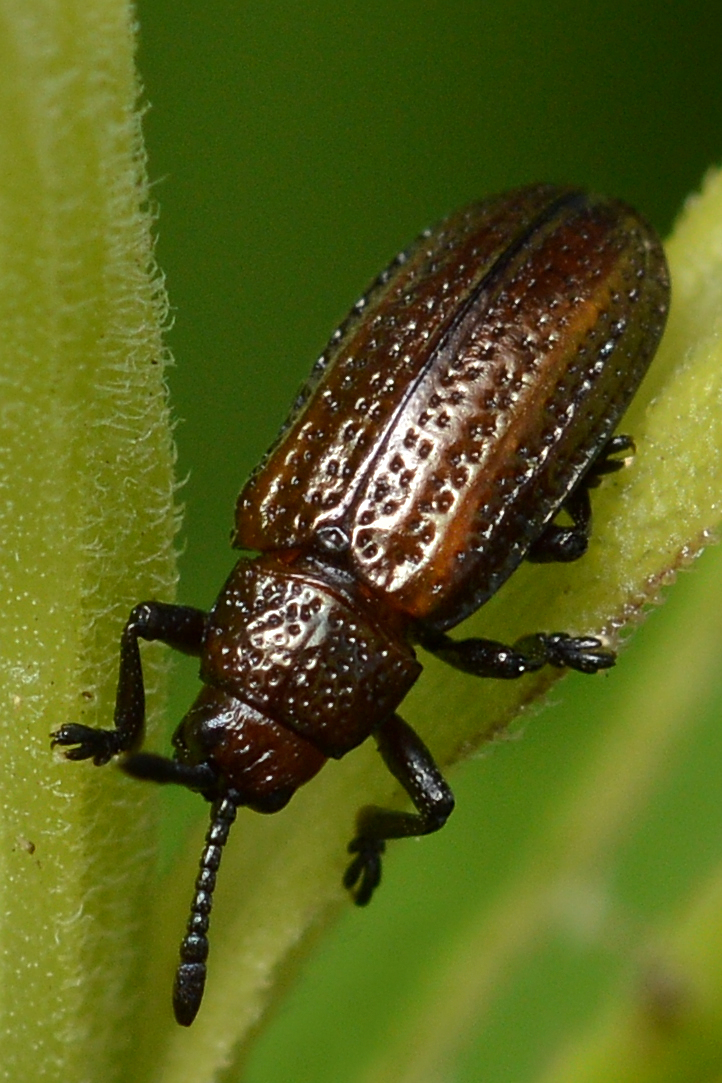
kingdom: Animalia
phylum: Arthropoda
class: Insecta
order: Coleoptera
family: Chrysomelidae
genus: Microrhopala
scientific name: Microrhopala vittata
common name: Goldenrod leaf miner beetle
